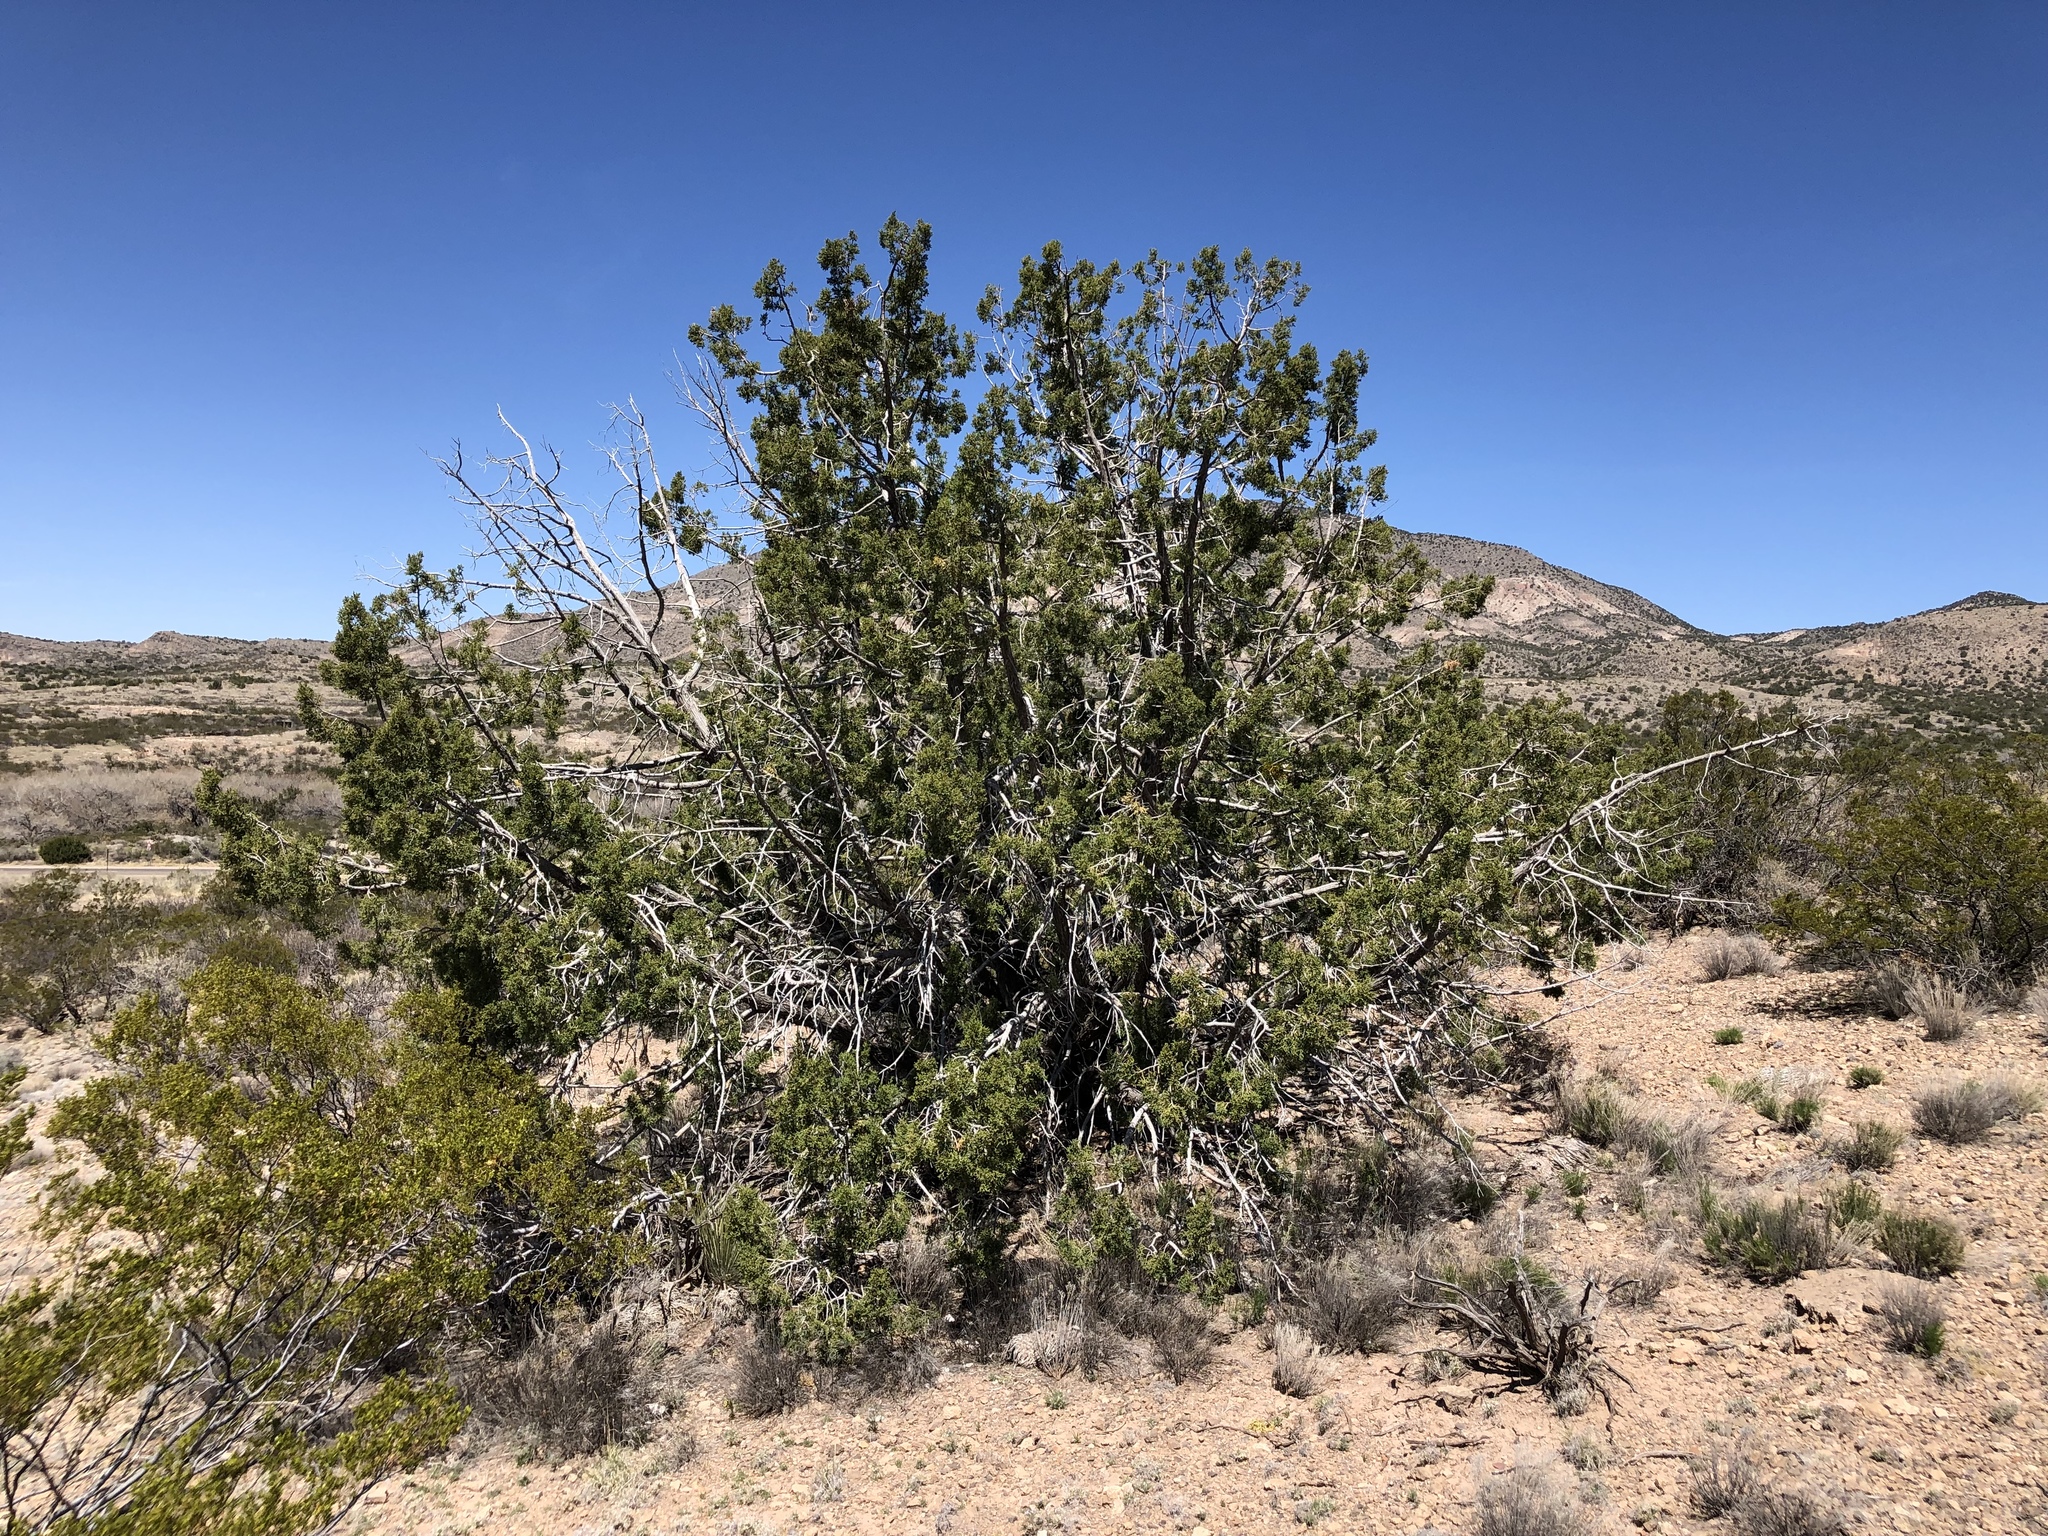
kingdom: Plantae
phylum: Tracheophyta
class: Pinopsida
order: Pinales
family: Cupressaceae
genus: Juniperus
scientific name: Juniperus monosperma
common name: One-seed juniper
